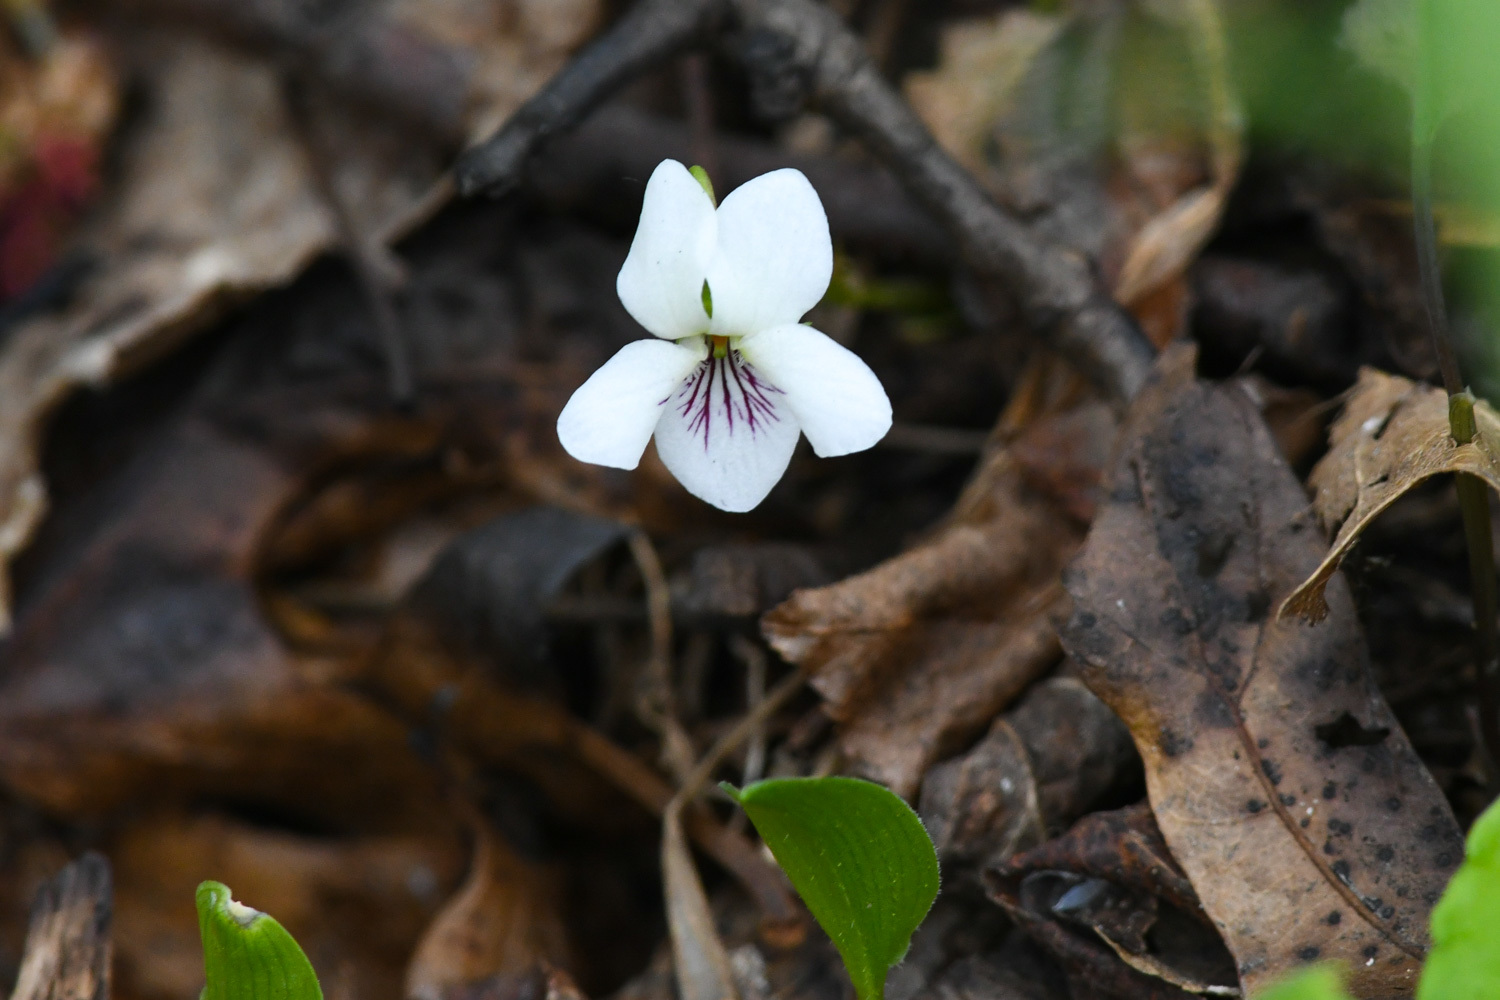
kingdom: Plantae
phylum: Tracheophyta
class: Magnoliopsida
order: Malpighiales
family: Violaceae
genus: Viola
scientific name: Viola blanda
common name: Sweet white violet
